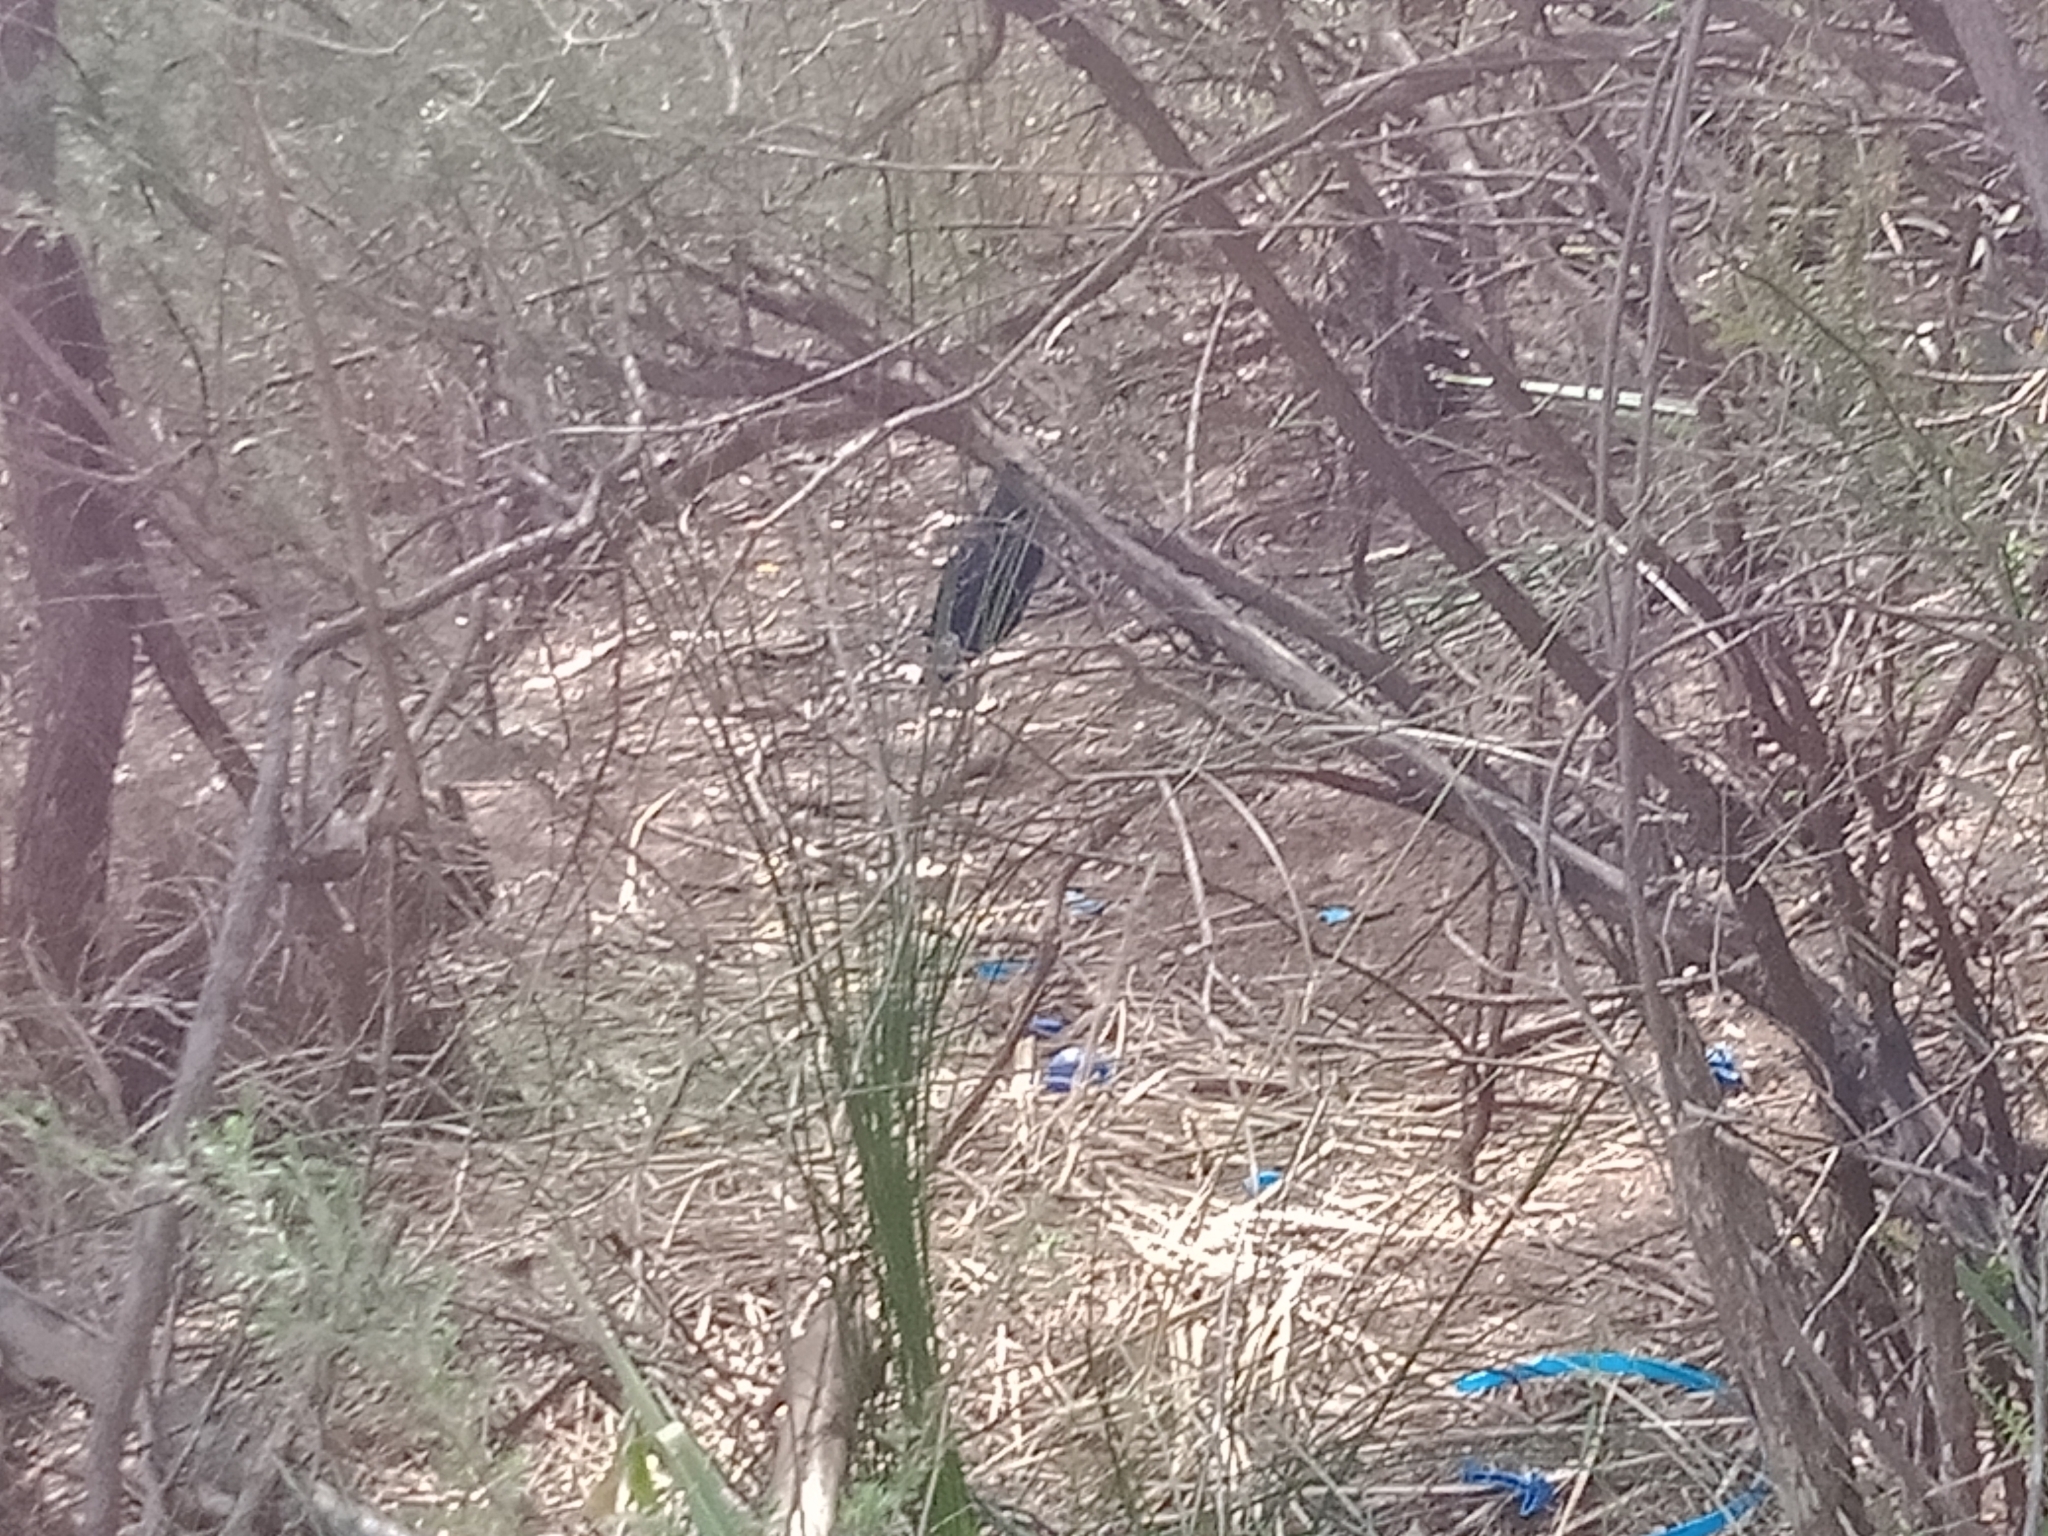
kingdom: Animalia
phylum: Chordata
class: Aves
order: Passeriformes
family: Ptilonorhynchidae
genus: Ptilonorhynchus
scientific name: Ptilonorhynchus violaceus
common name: Satin bowerbird
